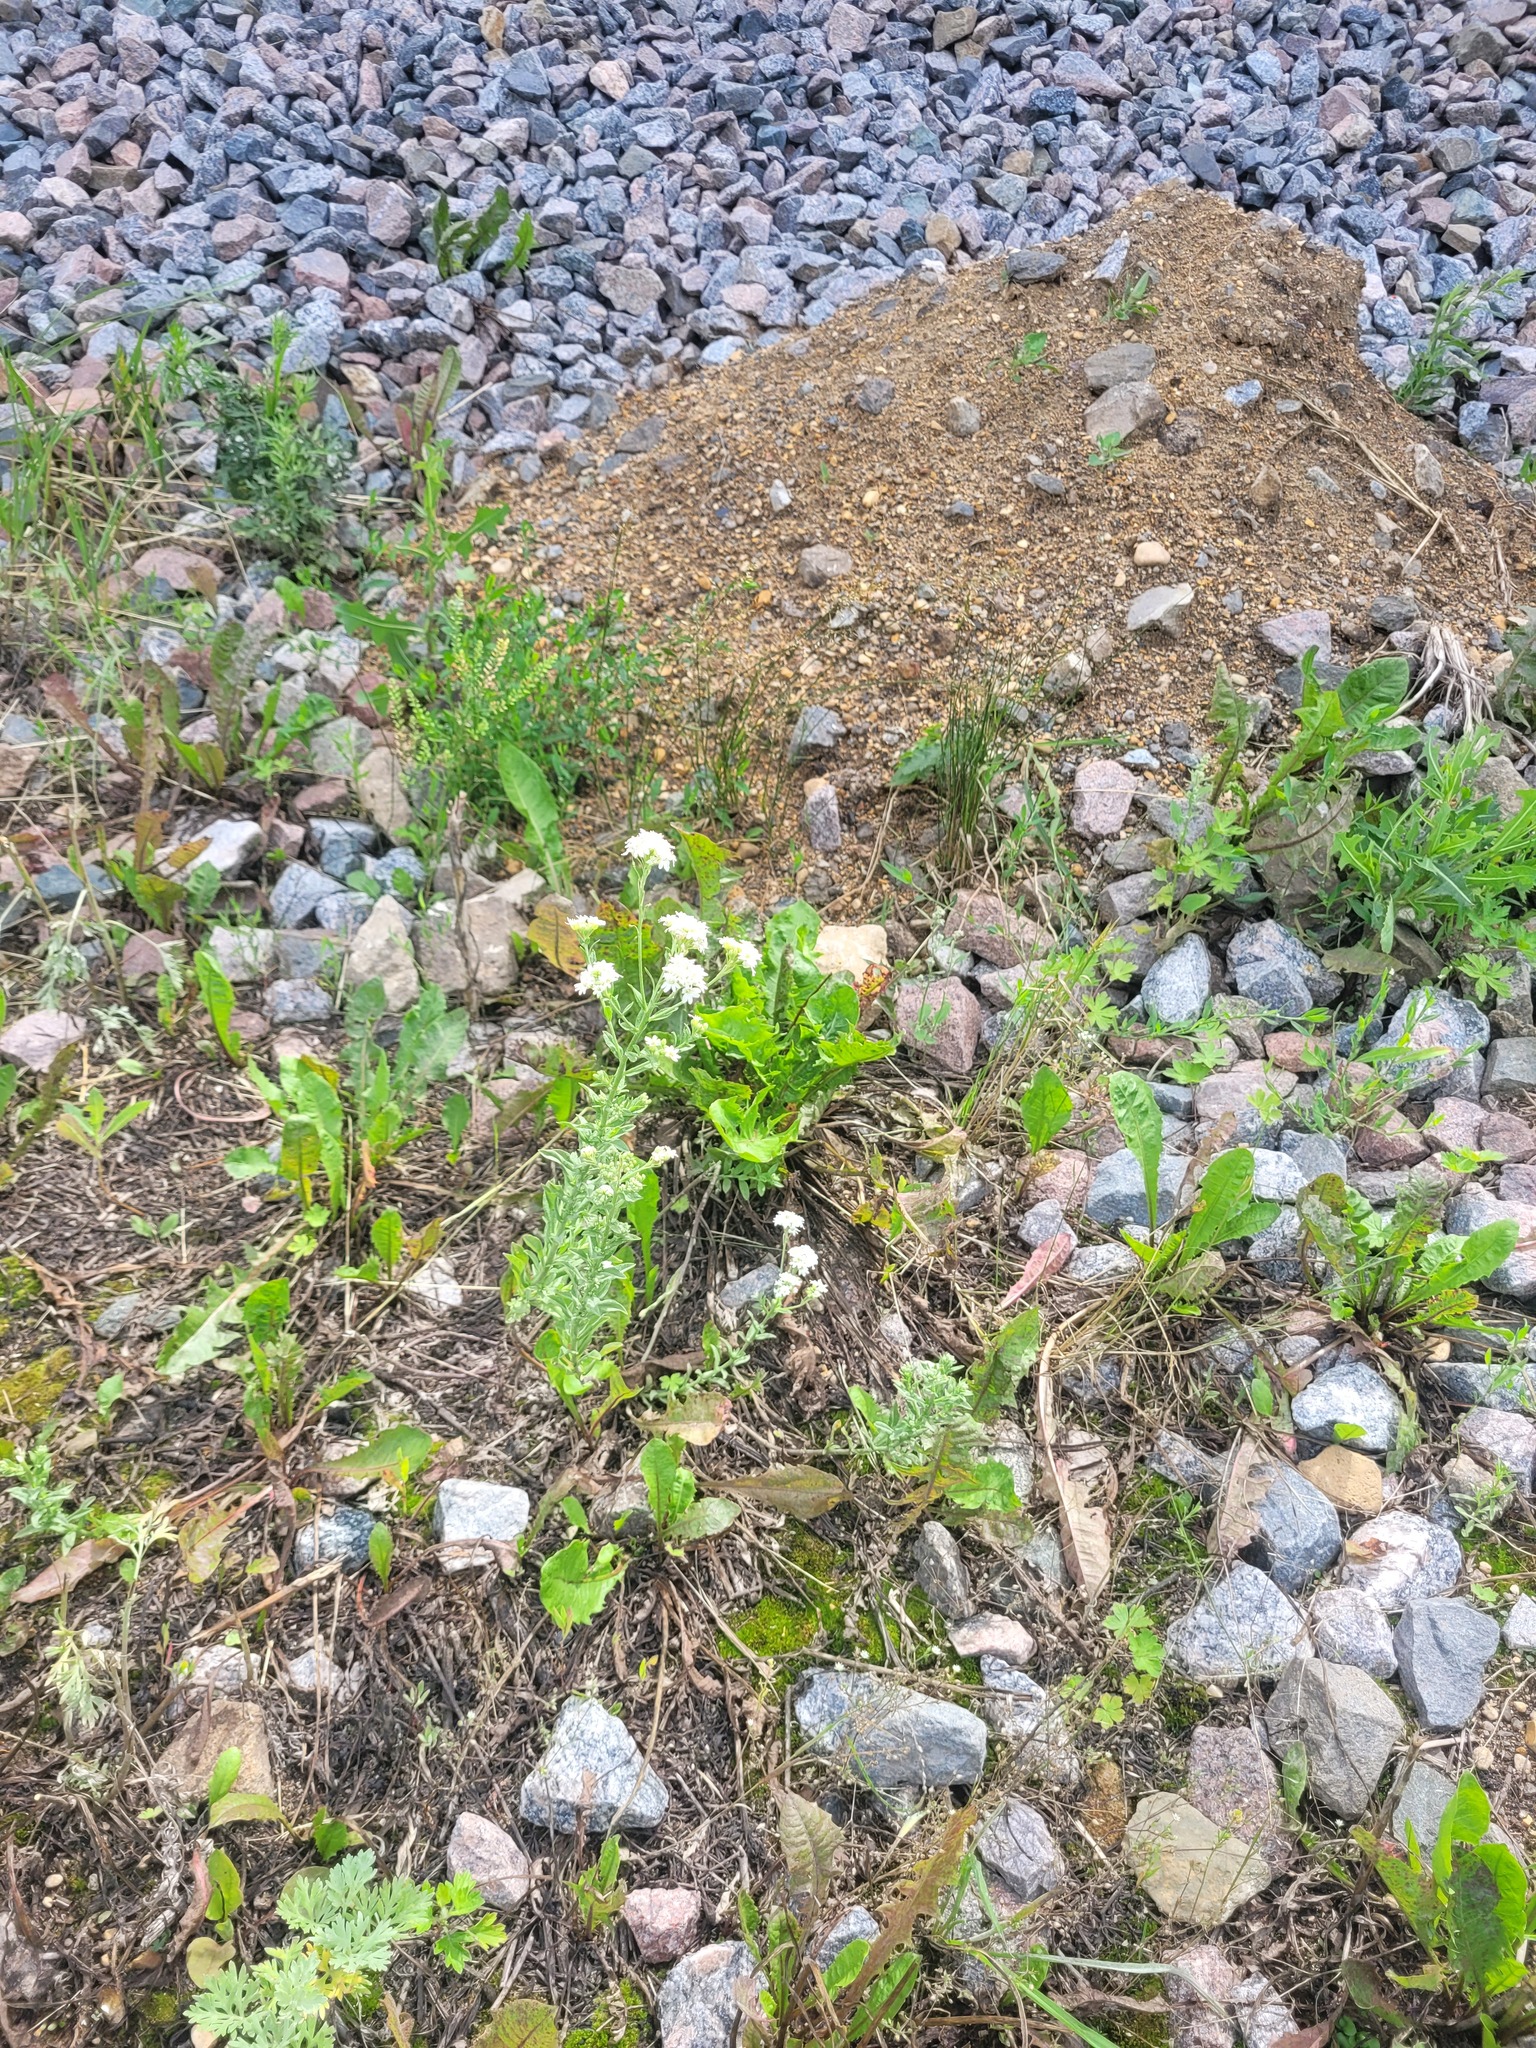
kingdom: Plantae
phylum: Tracheophyta
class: Magnoliopsida
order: Brassicales
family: Brassicaceae
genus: Berteroa
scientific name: Berteroa incana
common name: Hoary alison
